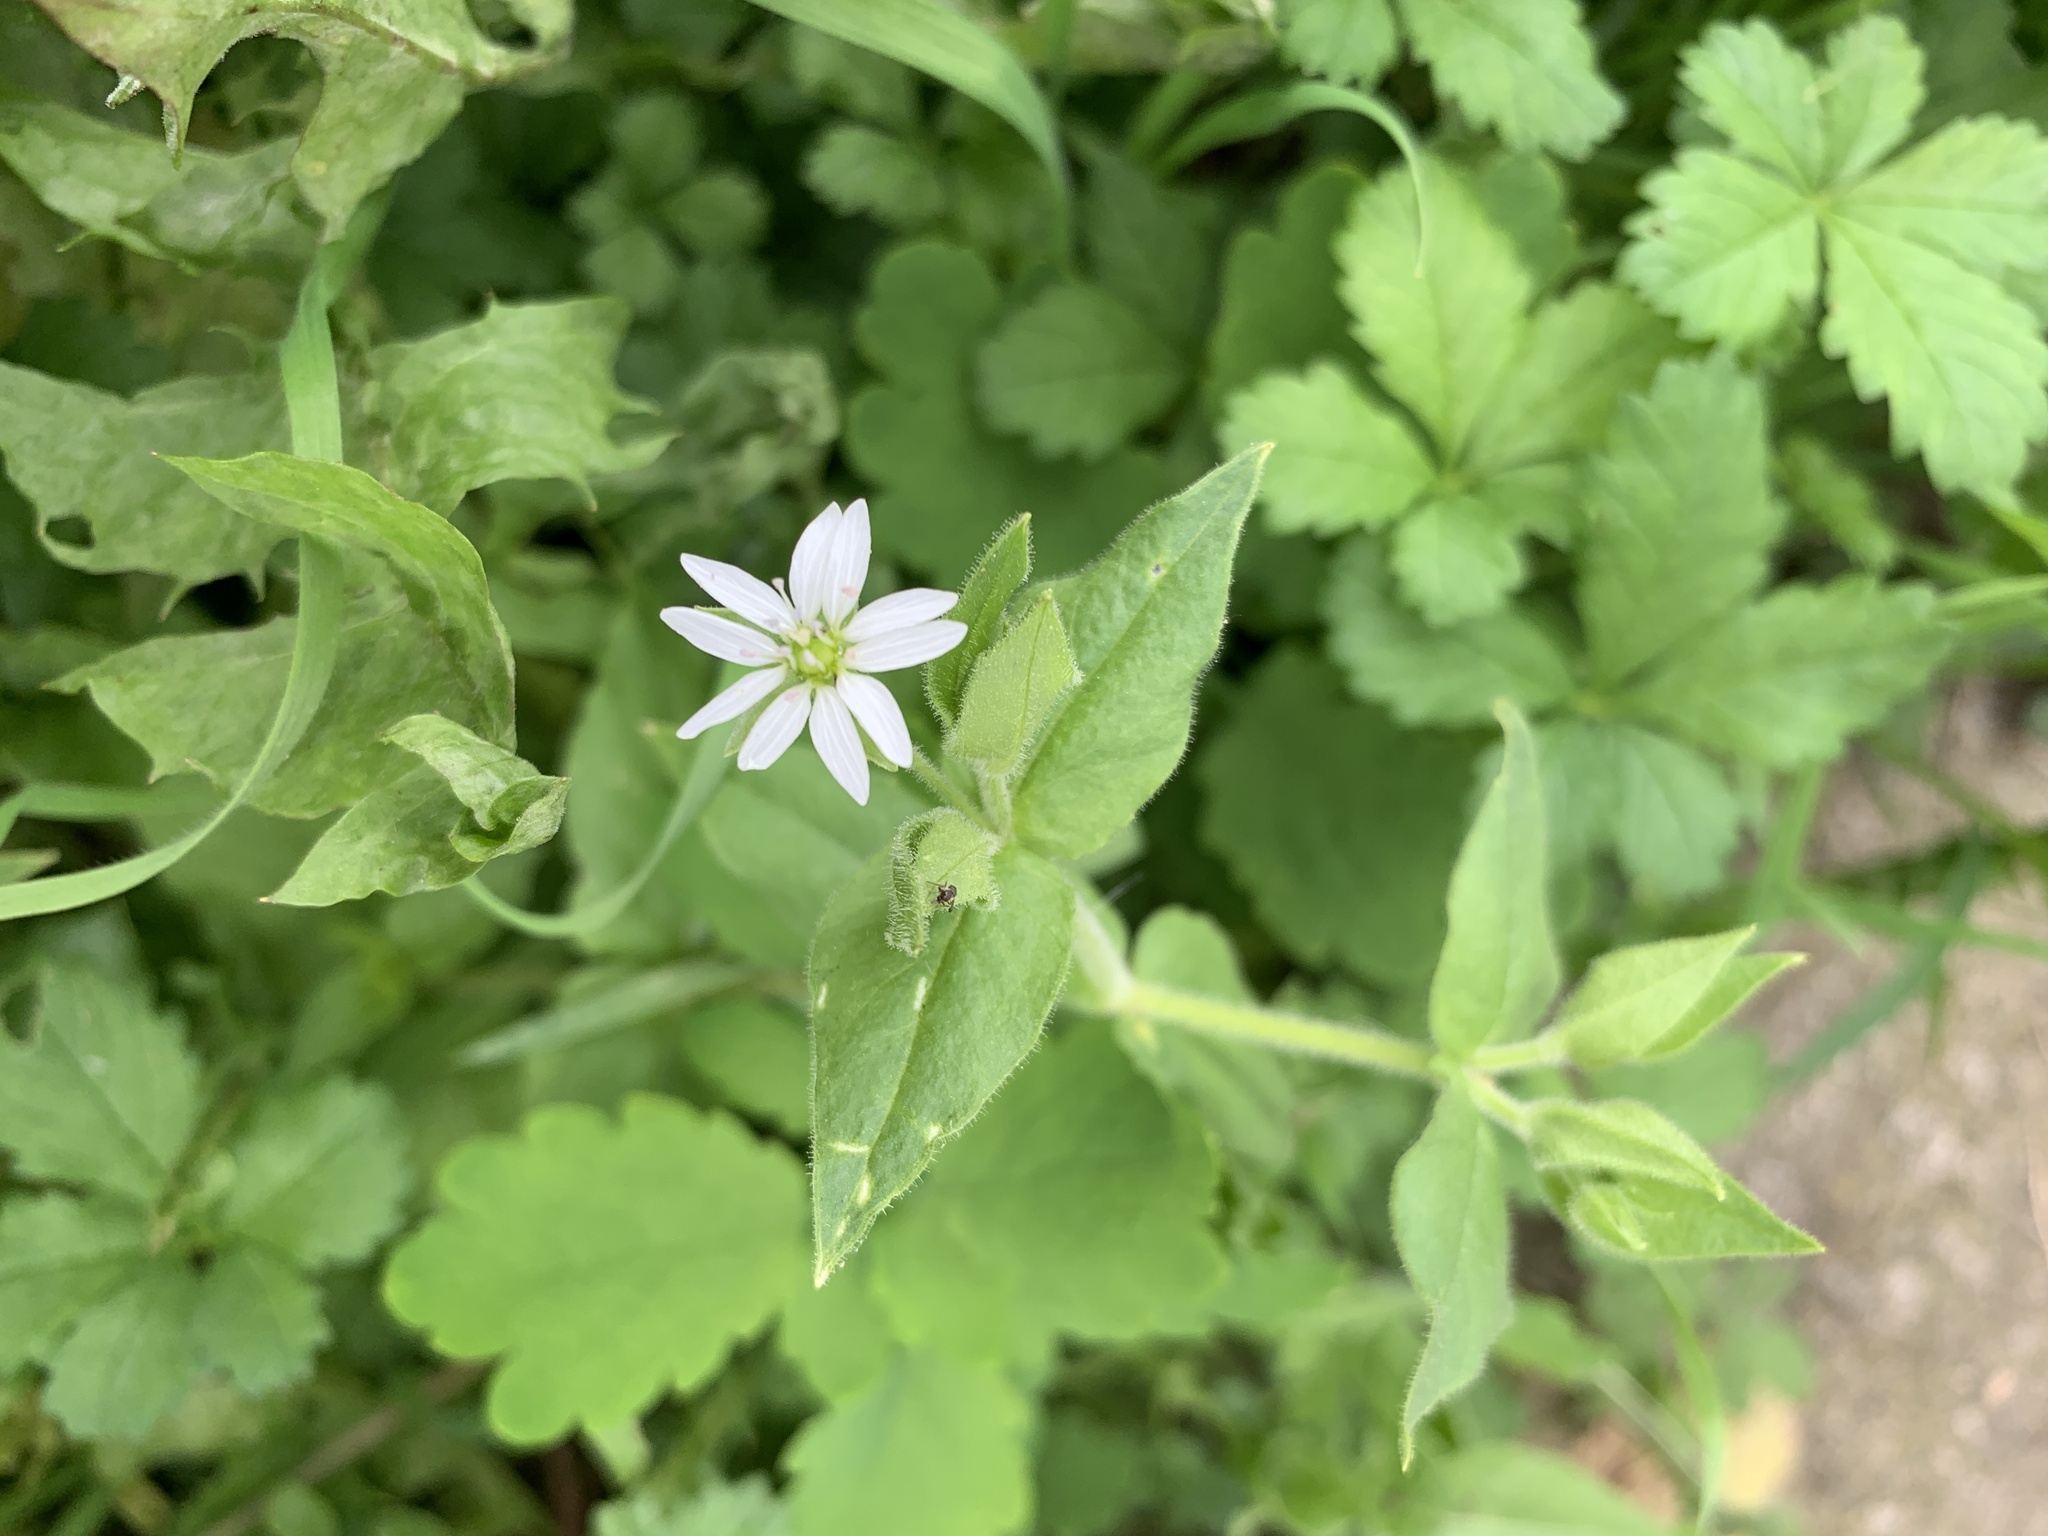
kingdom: Plantae
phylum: Tracheophyta
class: Magnoliopsida
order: Caryophyllales
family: Caryophyllaceae
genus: Stellaria
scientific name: Stellaria aquatica
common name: Water chickweed
